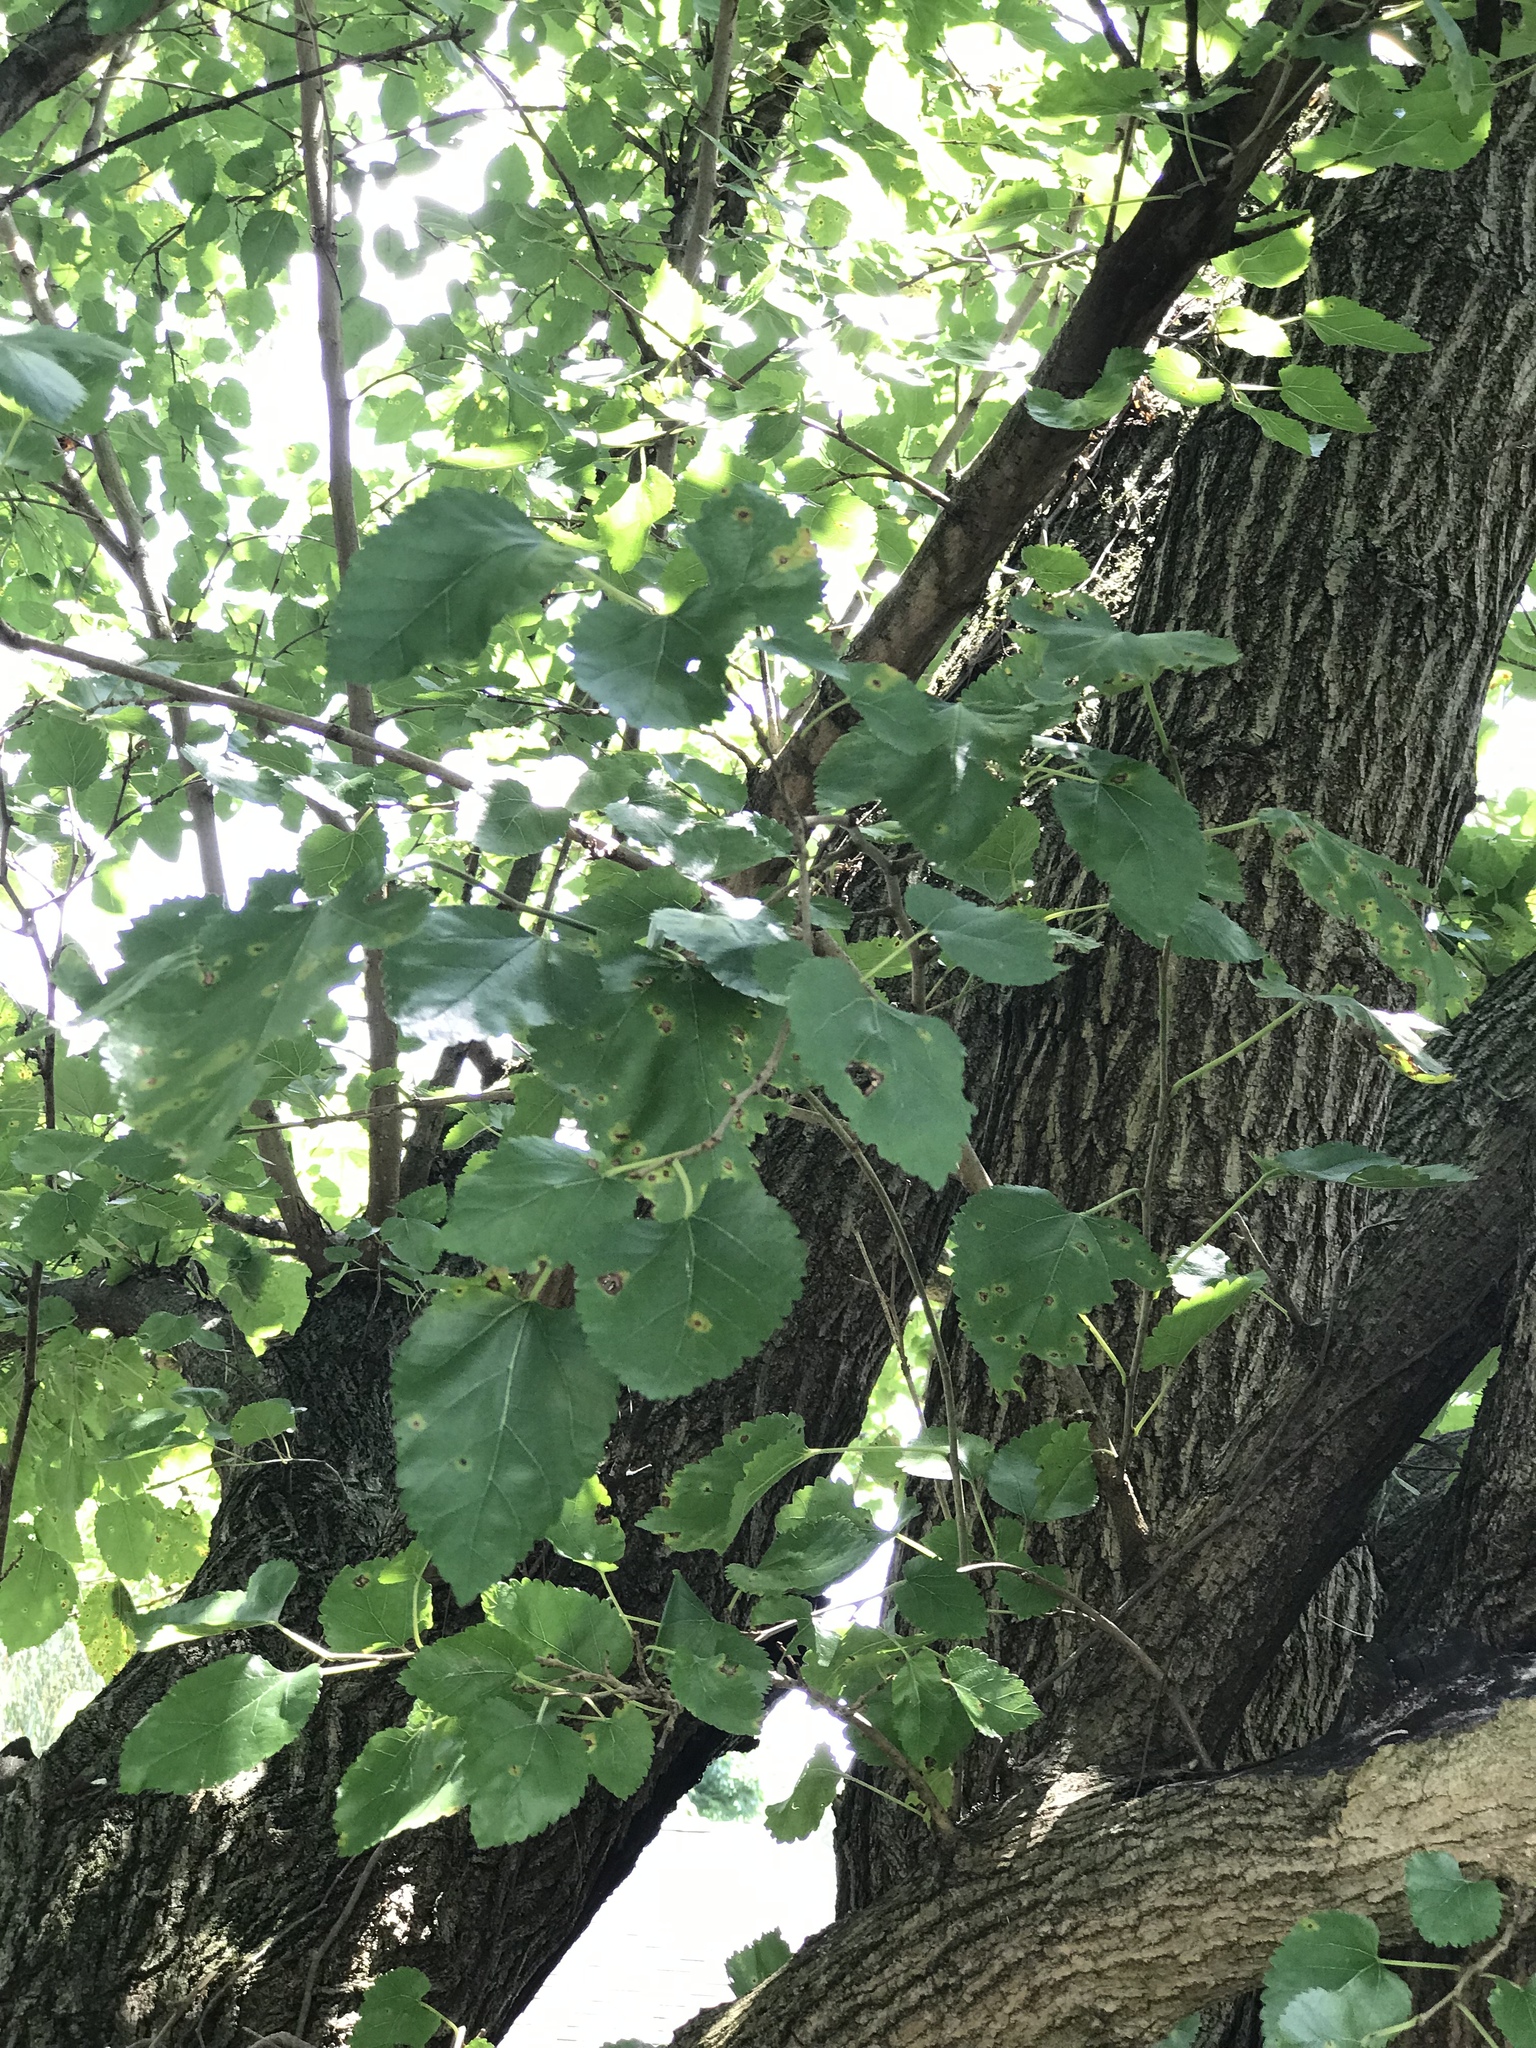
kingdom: Plantae
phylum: Tracheophyta
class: Magnoliopsida
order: Rosales
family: Moraceae
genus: Morus
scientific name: Morus alba
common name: White mulberry
